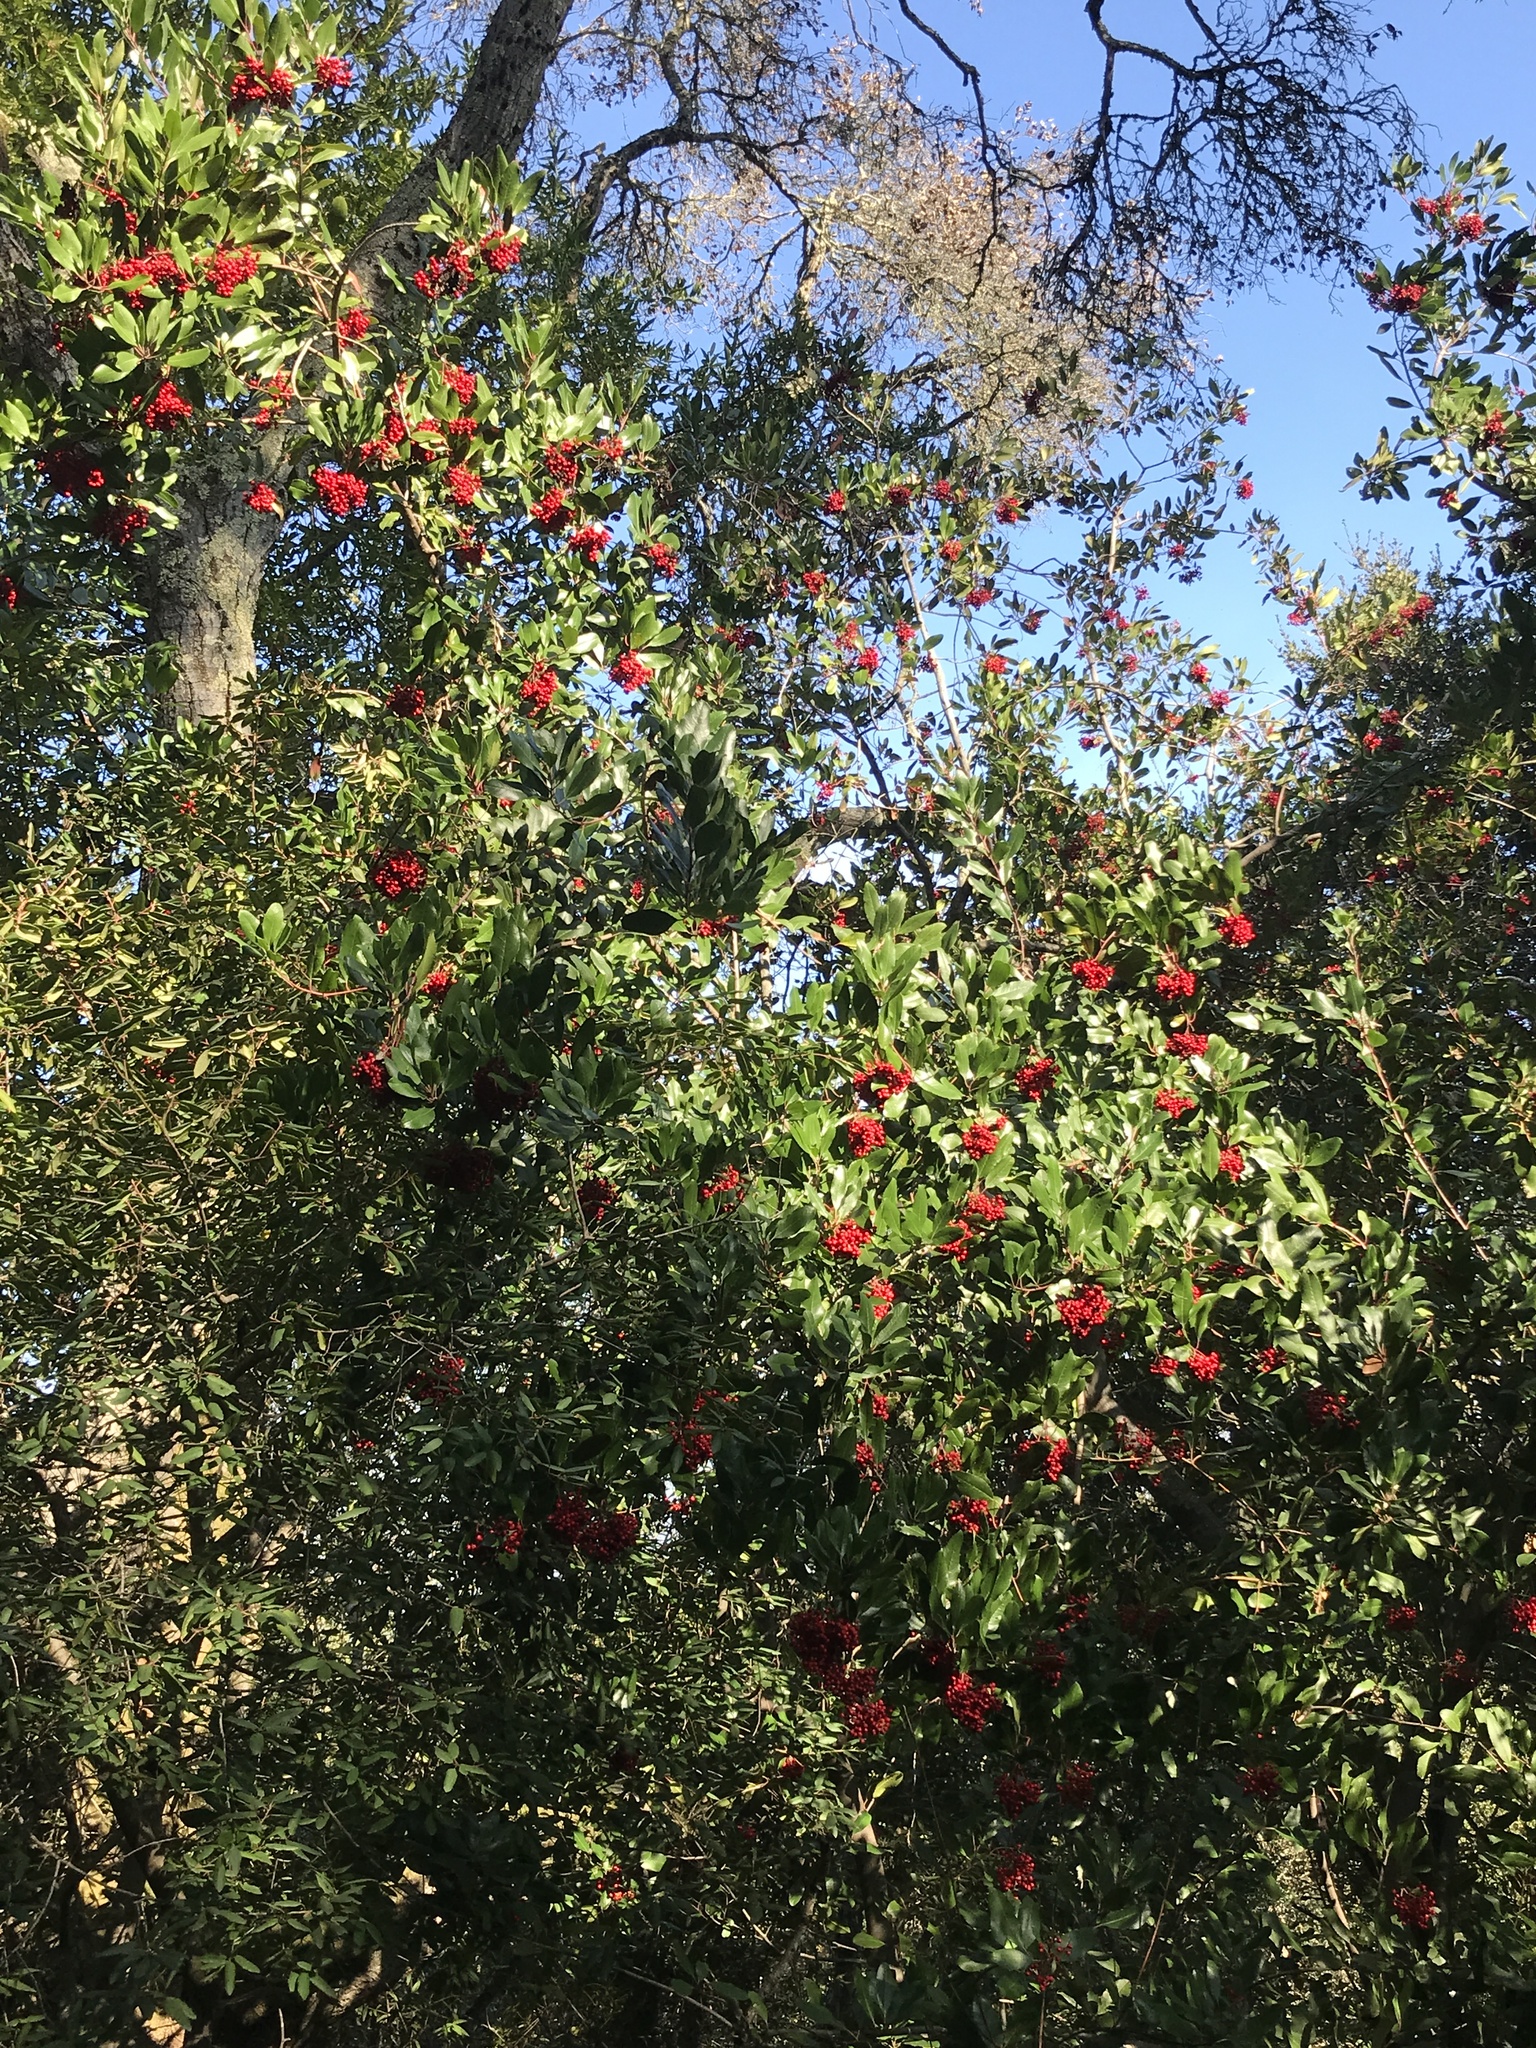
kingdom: Plantae
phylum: Tracheophyta
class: Magnoliopsida
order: Rosales
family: Rosaceae
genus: Heteromeles
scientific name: Heteromeles arbutifolia
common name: California-holly
